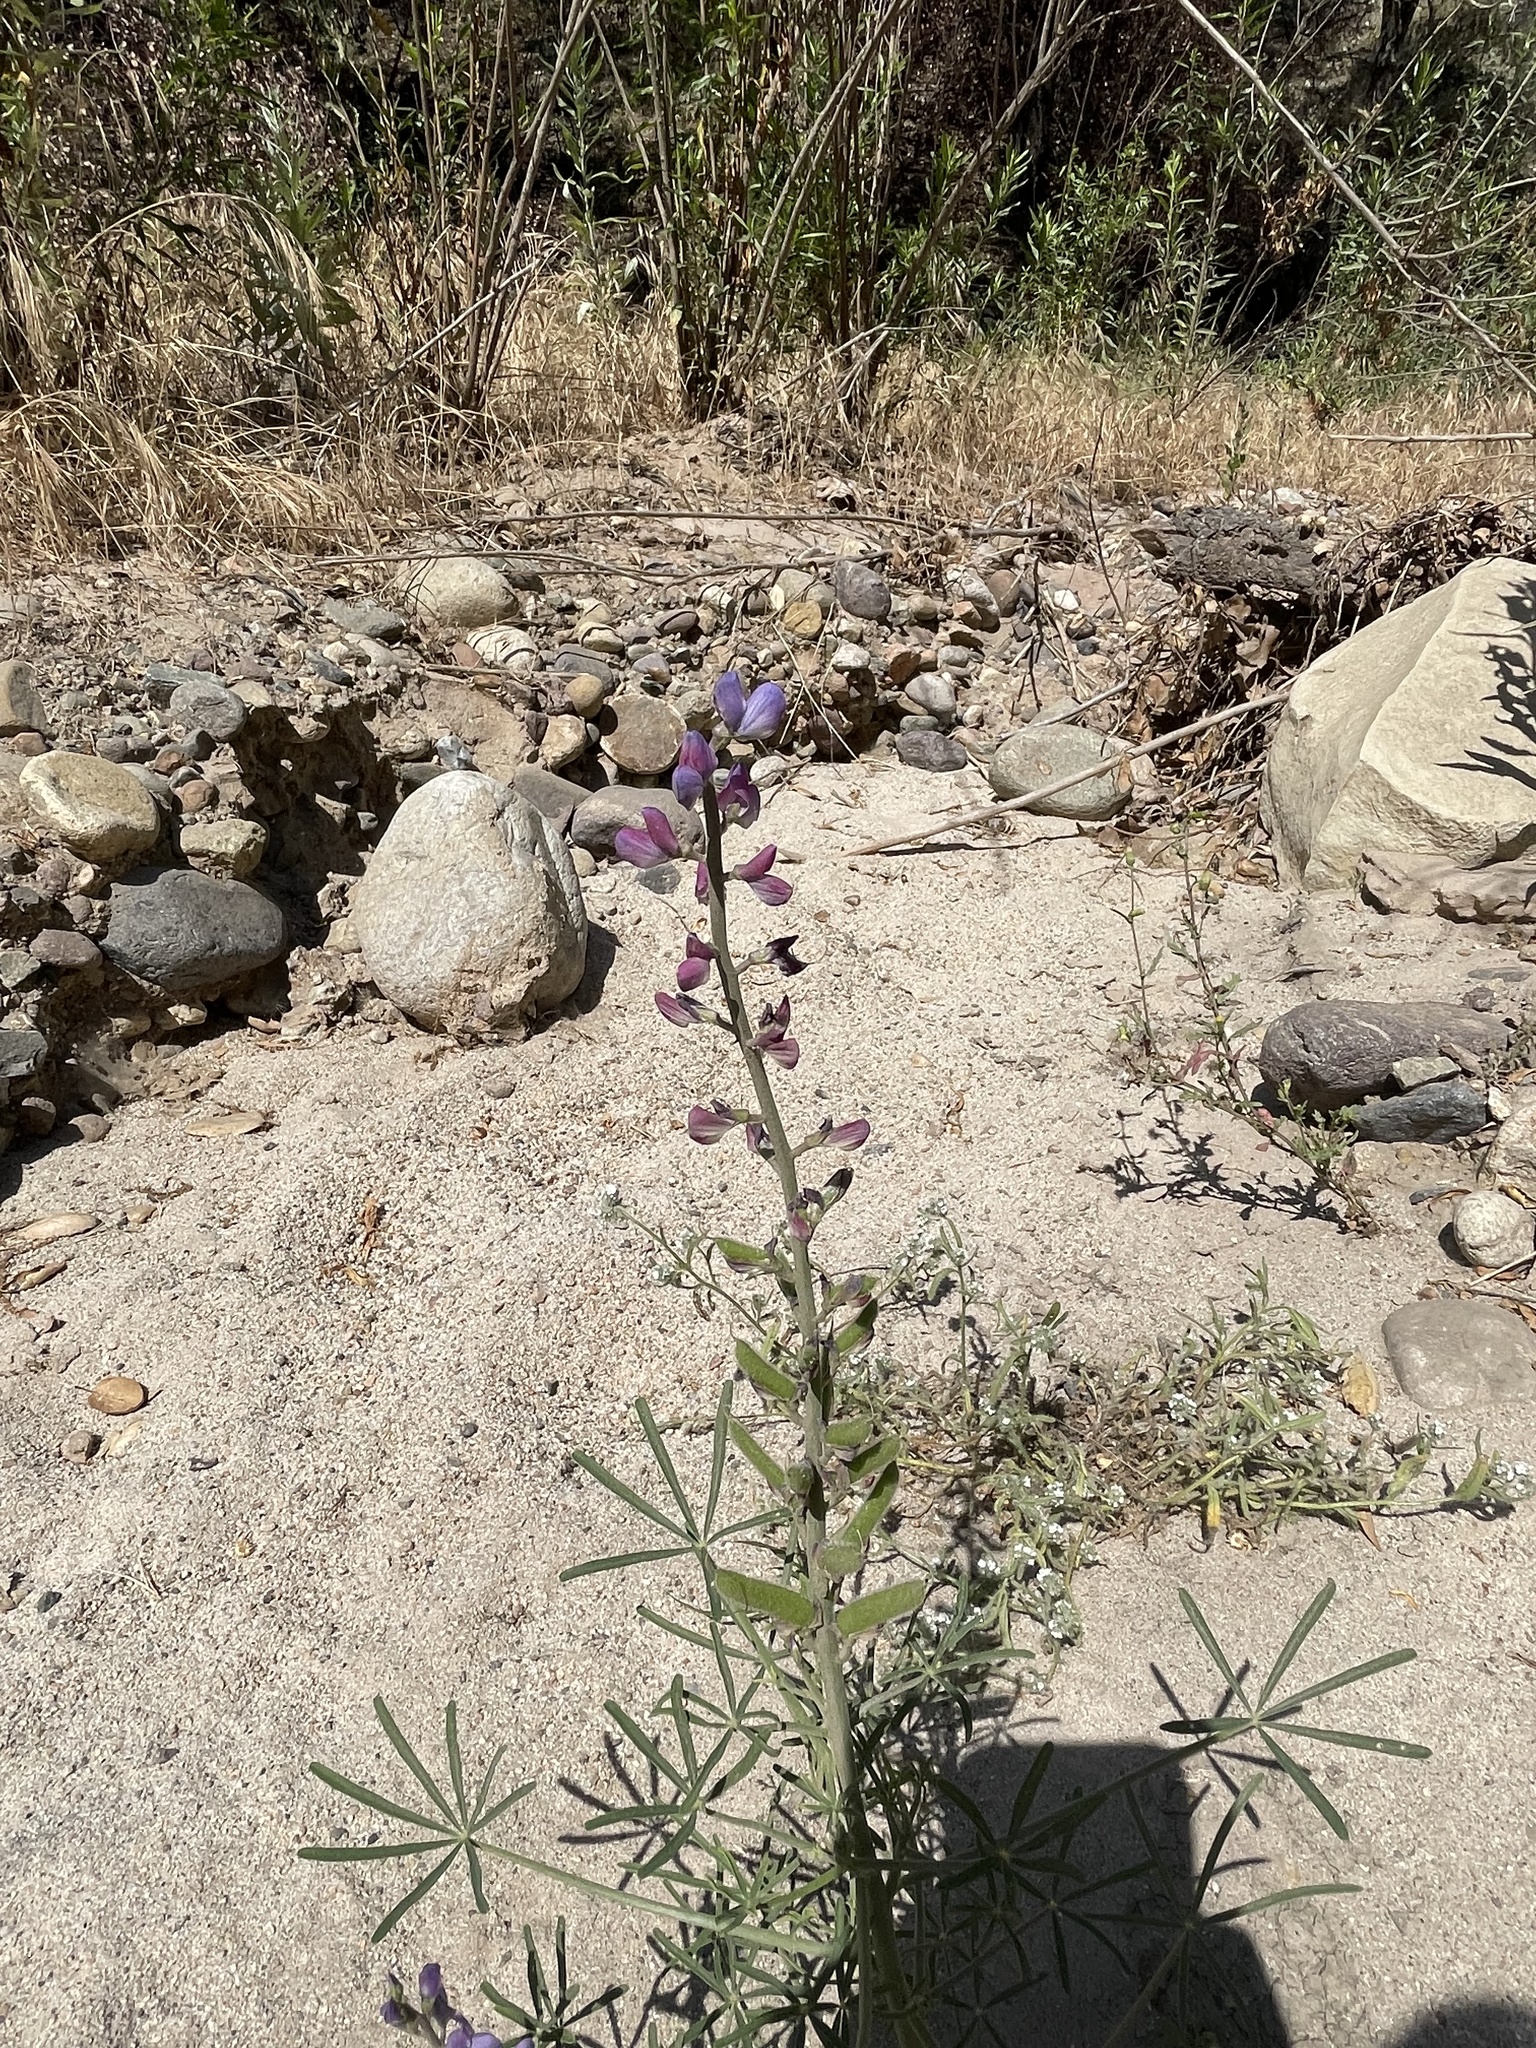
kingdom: Plantae
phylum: Tracheophyta
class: Magnoliopsida
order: Fabales
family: Fabaceae
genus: Lupinus
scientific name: Lupinus truncatus
